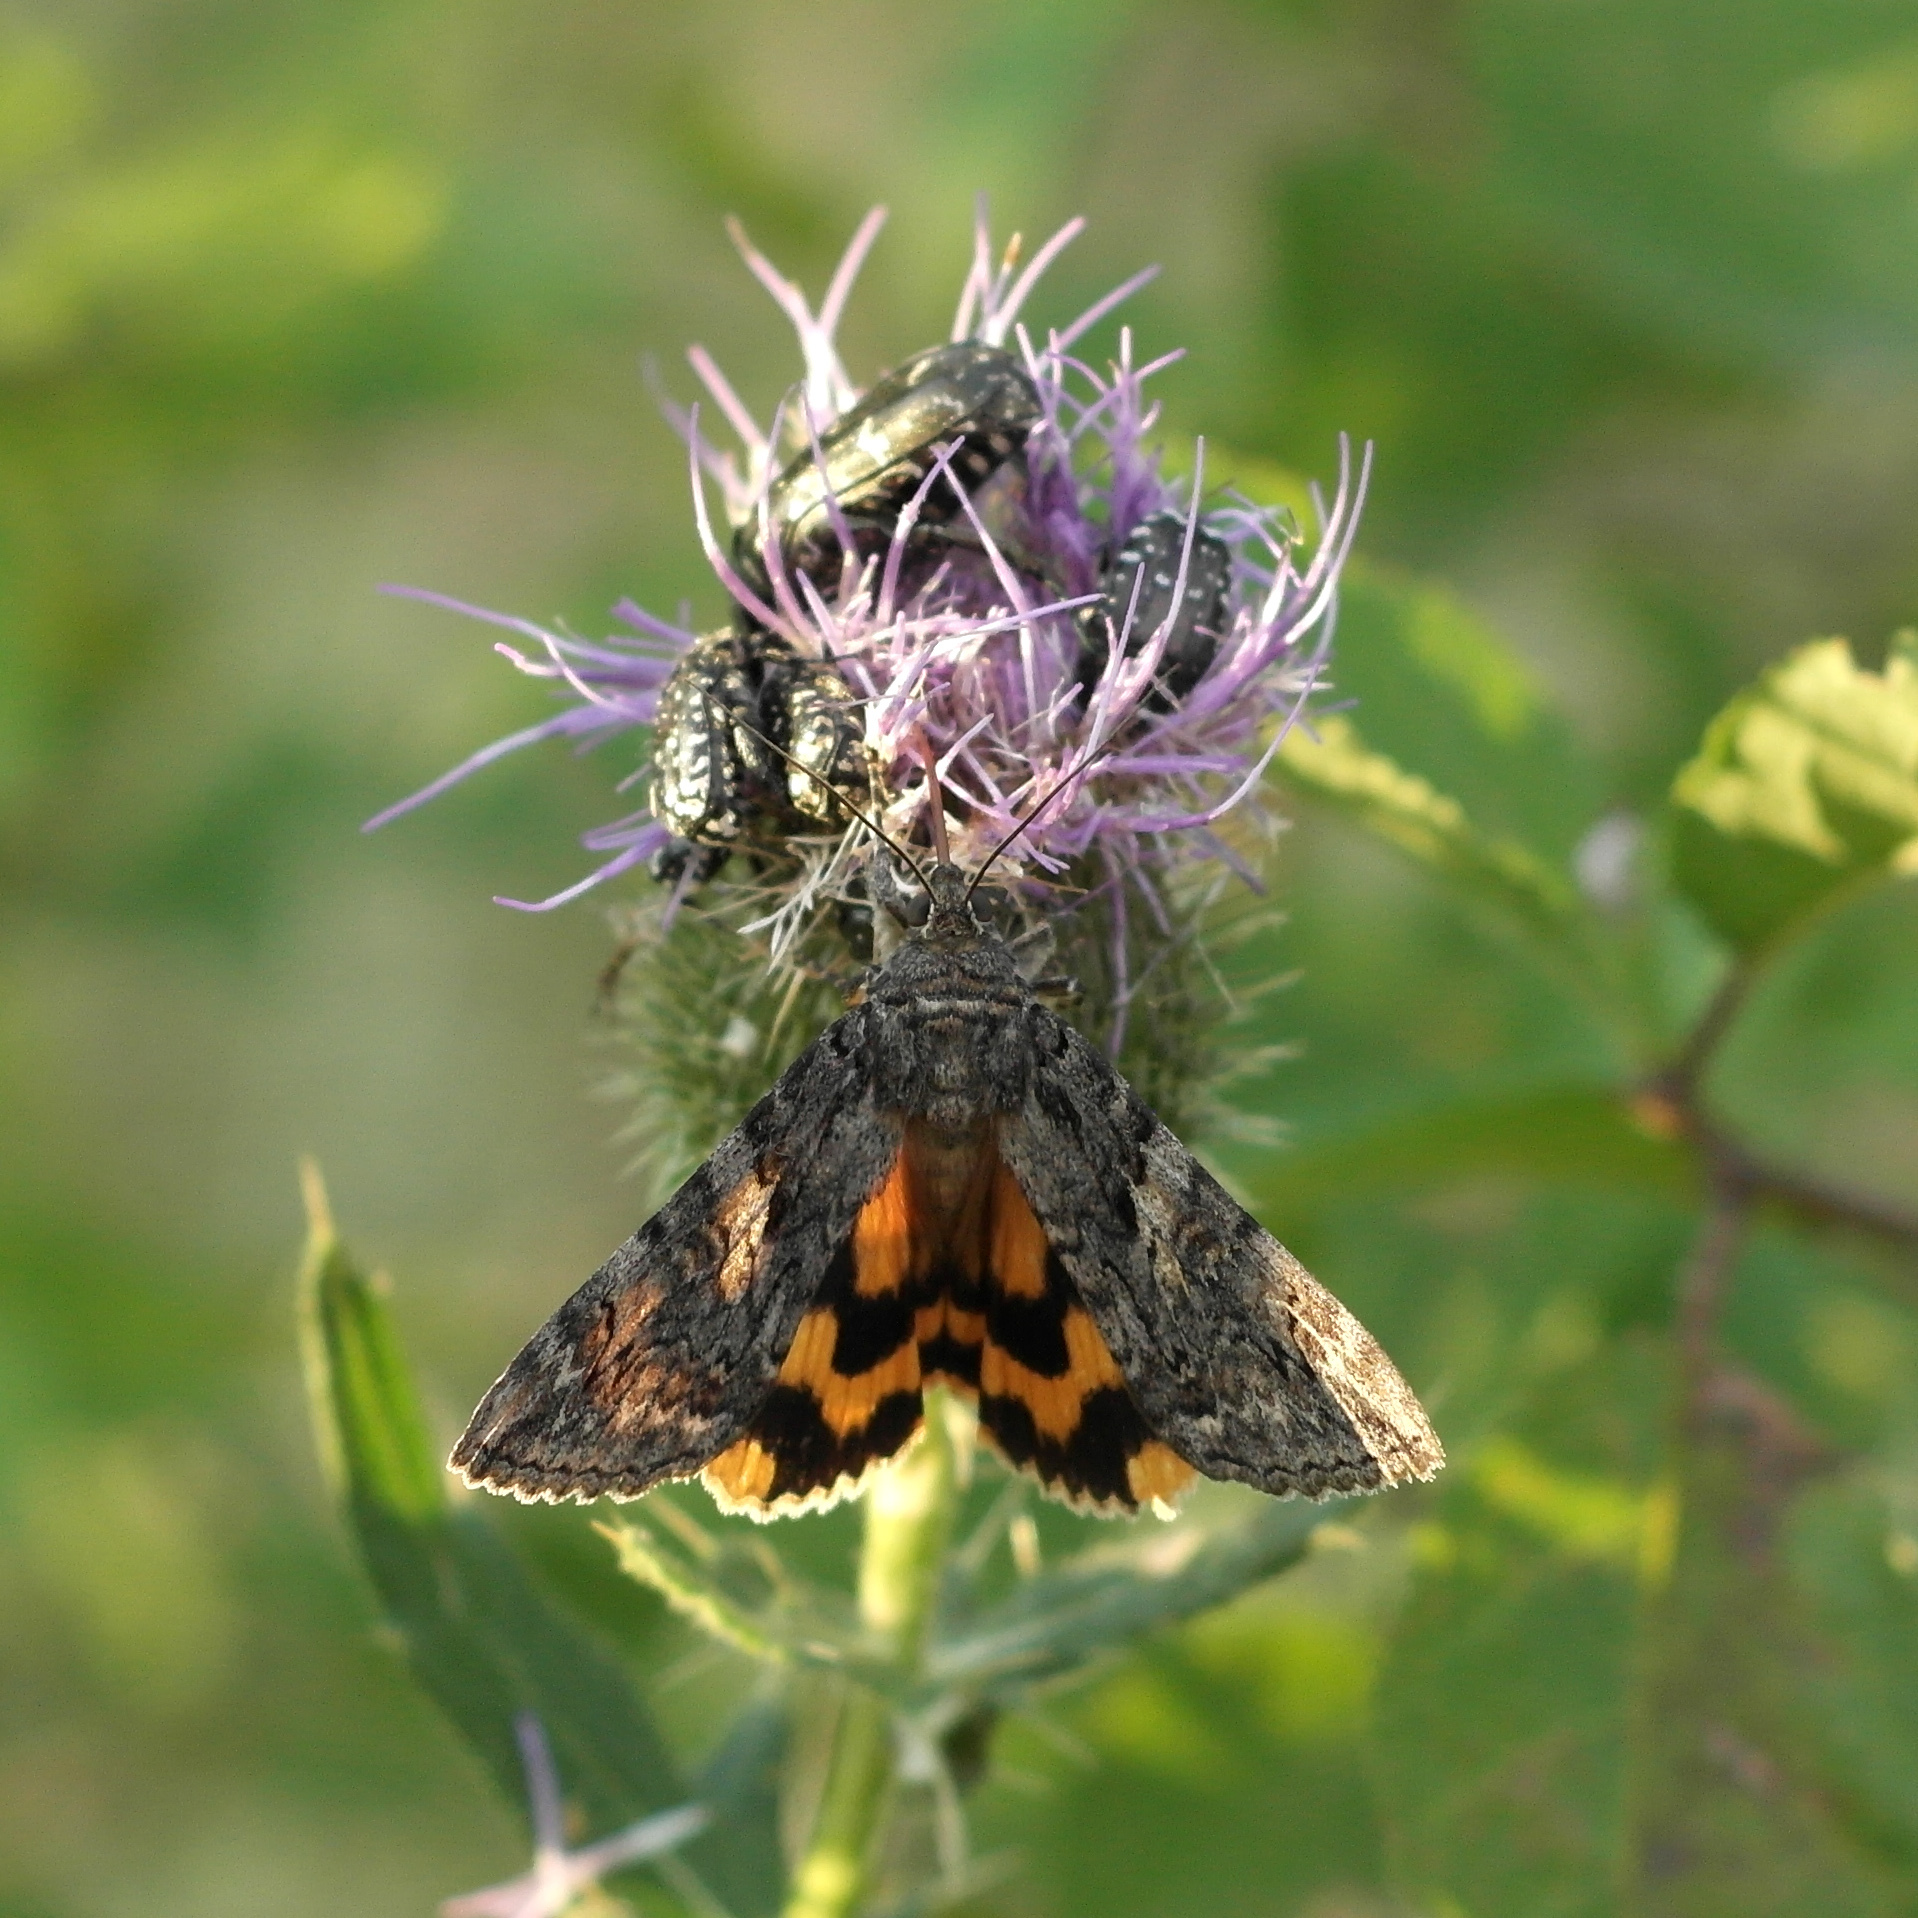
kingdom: Animalia
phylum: Arthropoda
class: Insecta
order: Lepidoptera
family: Erebidae
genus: Catocala
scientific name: Catocala helena
